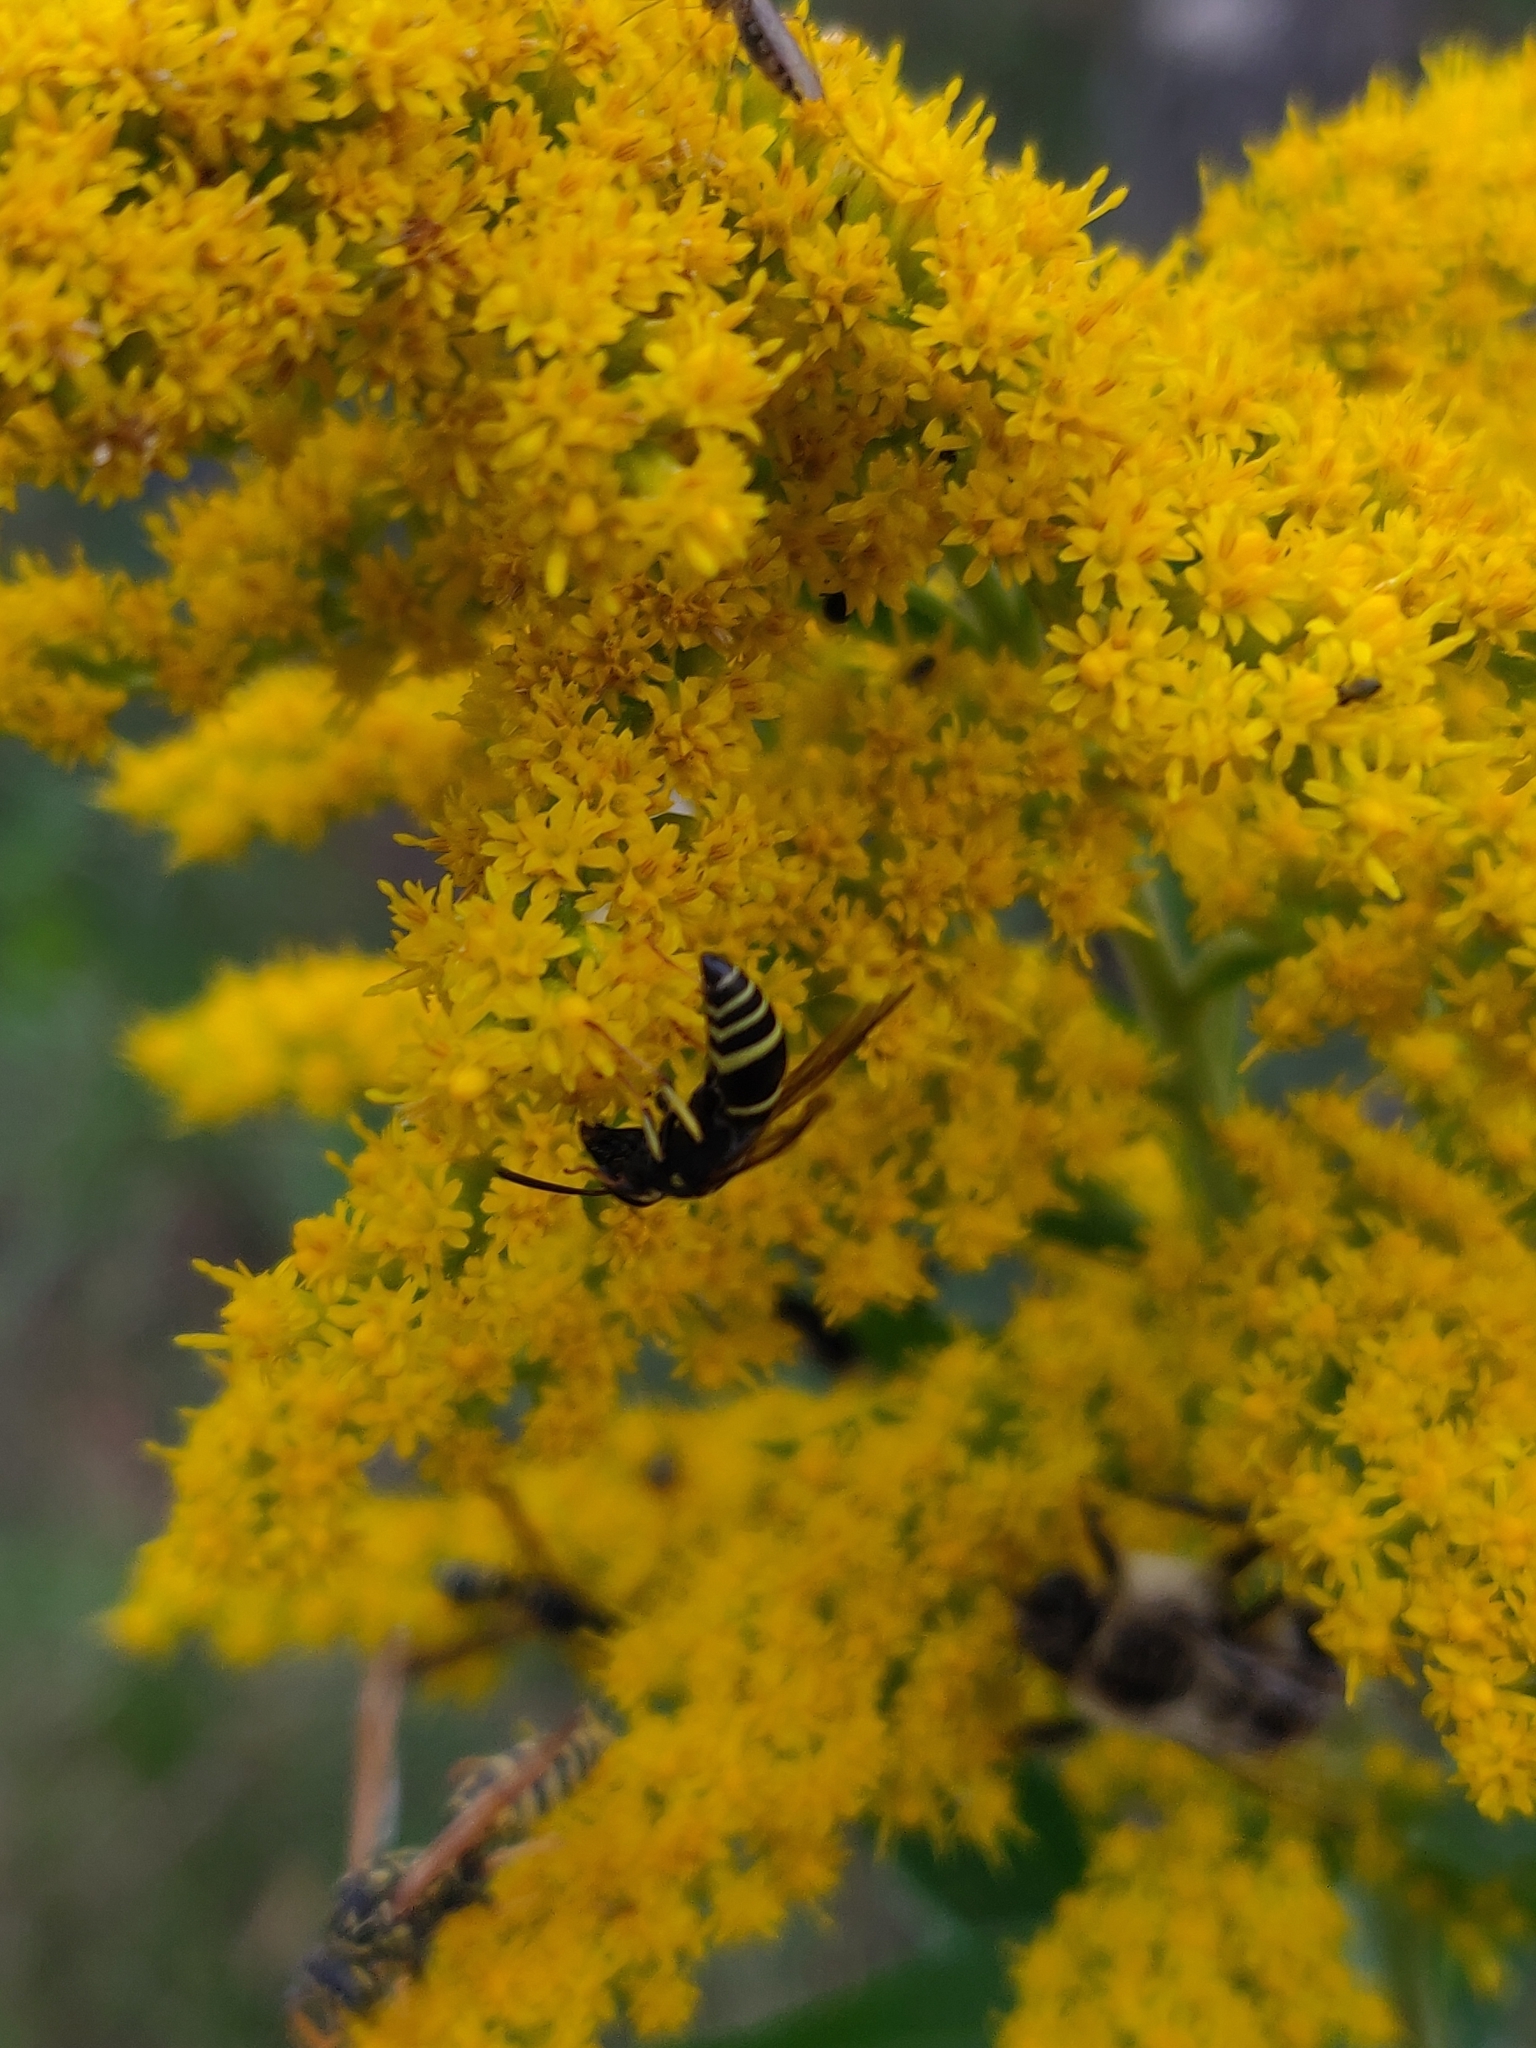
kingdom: Animalia
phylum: Arthropoda
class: Insecta
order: Hymenoptera
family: Vespidae
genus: Ancistrocerus
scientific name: Ancistrocerus
